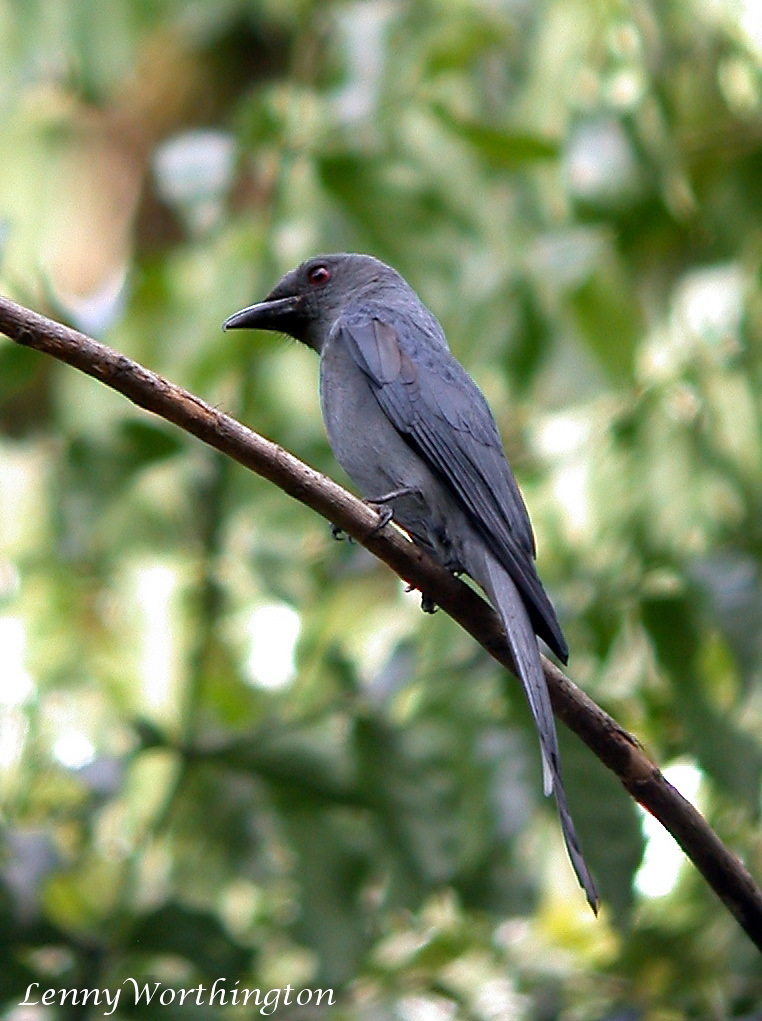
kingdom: Animalia
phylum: Chordata
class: Aves
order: Passeriformes
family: Dicruridae
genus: Dicrurus
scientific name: Dicrurus leucophaeus
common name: Ashy drongo
